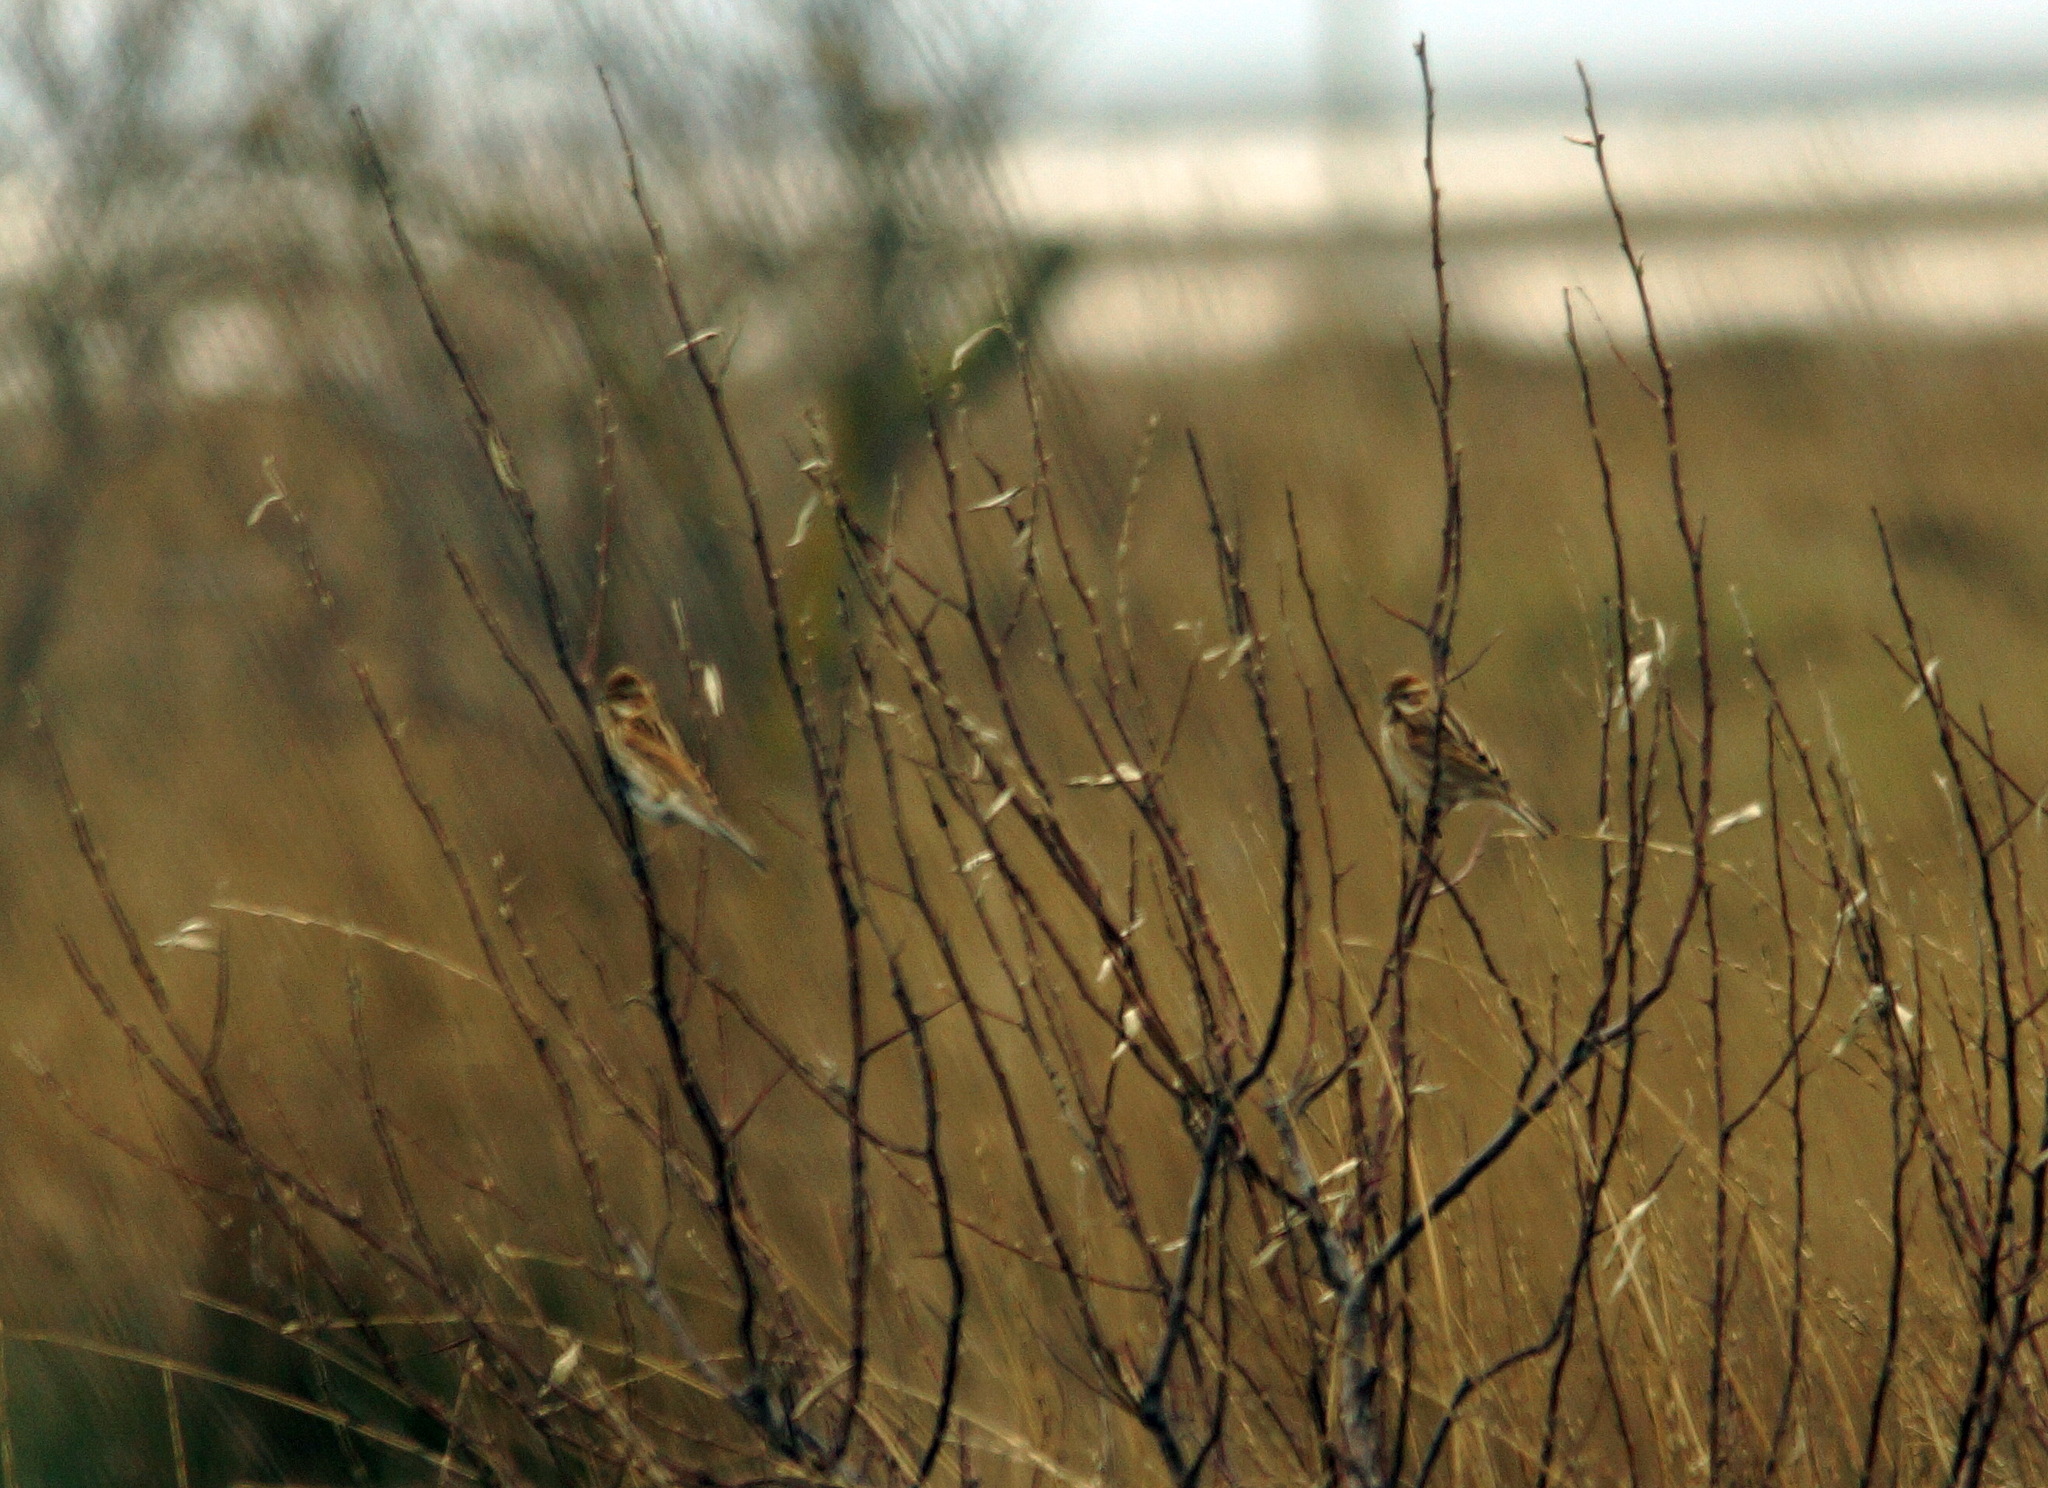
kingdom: Animalia
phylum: Chordata
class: Aves
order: Passeriformes
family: Emberizidae
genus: Emberiza
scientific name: Emberiza schoeniclus
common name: Reed bunting
